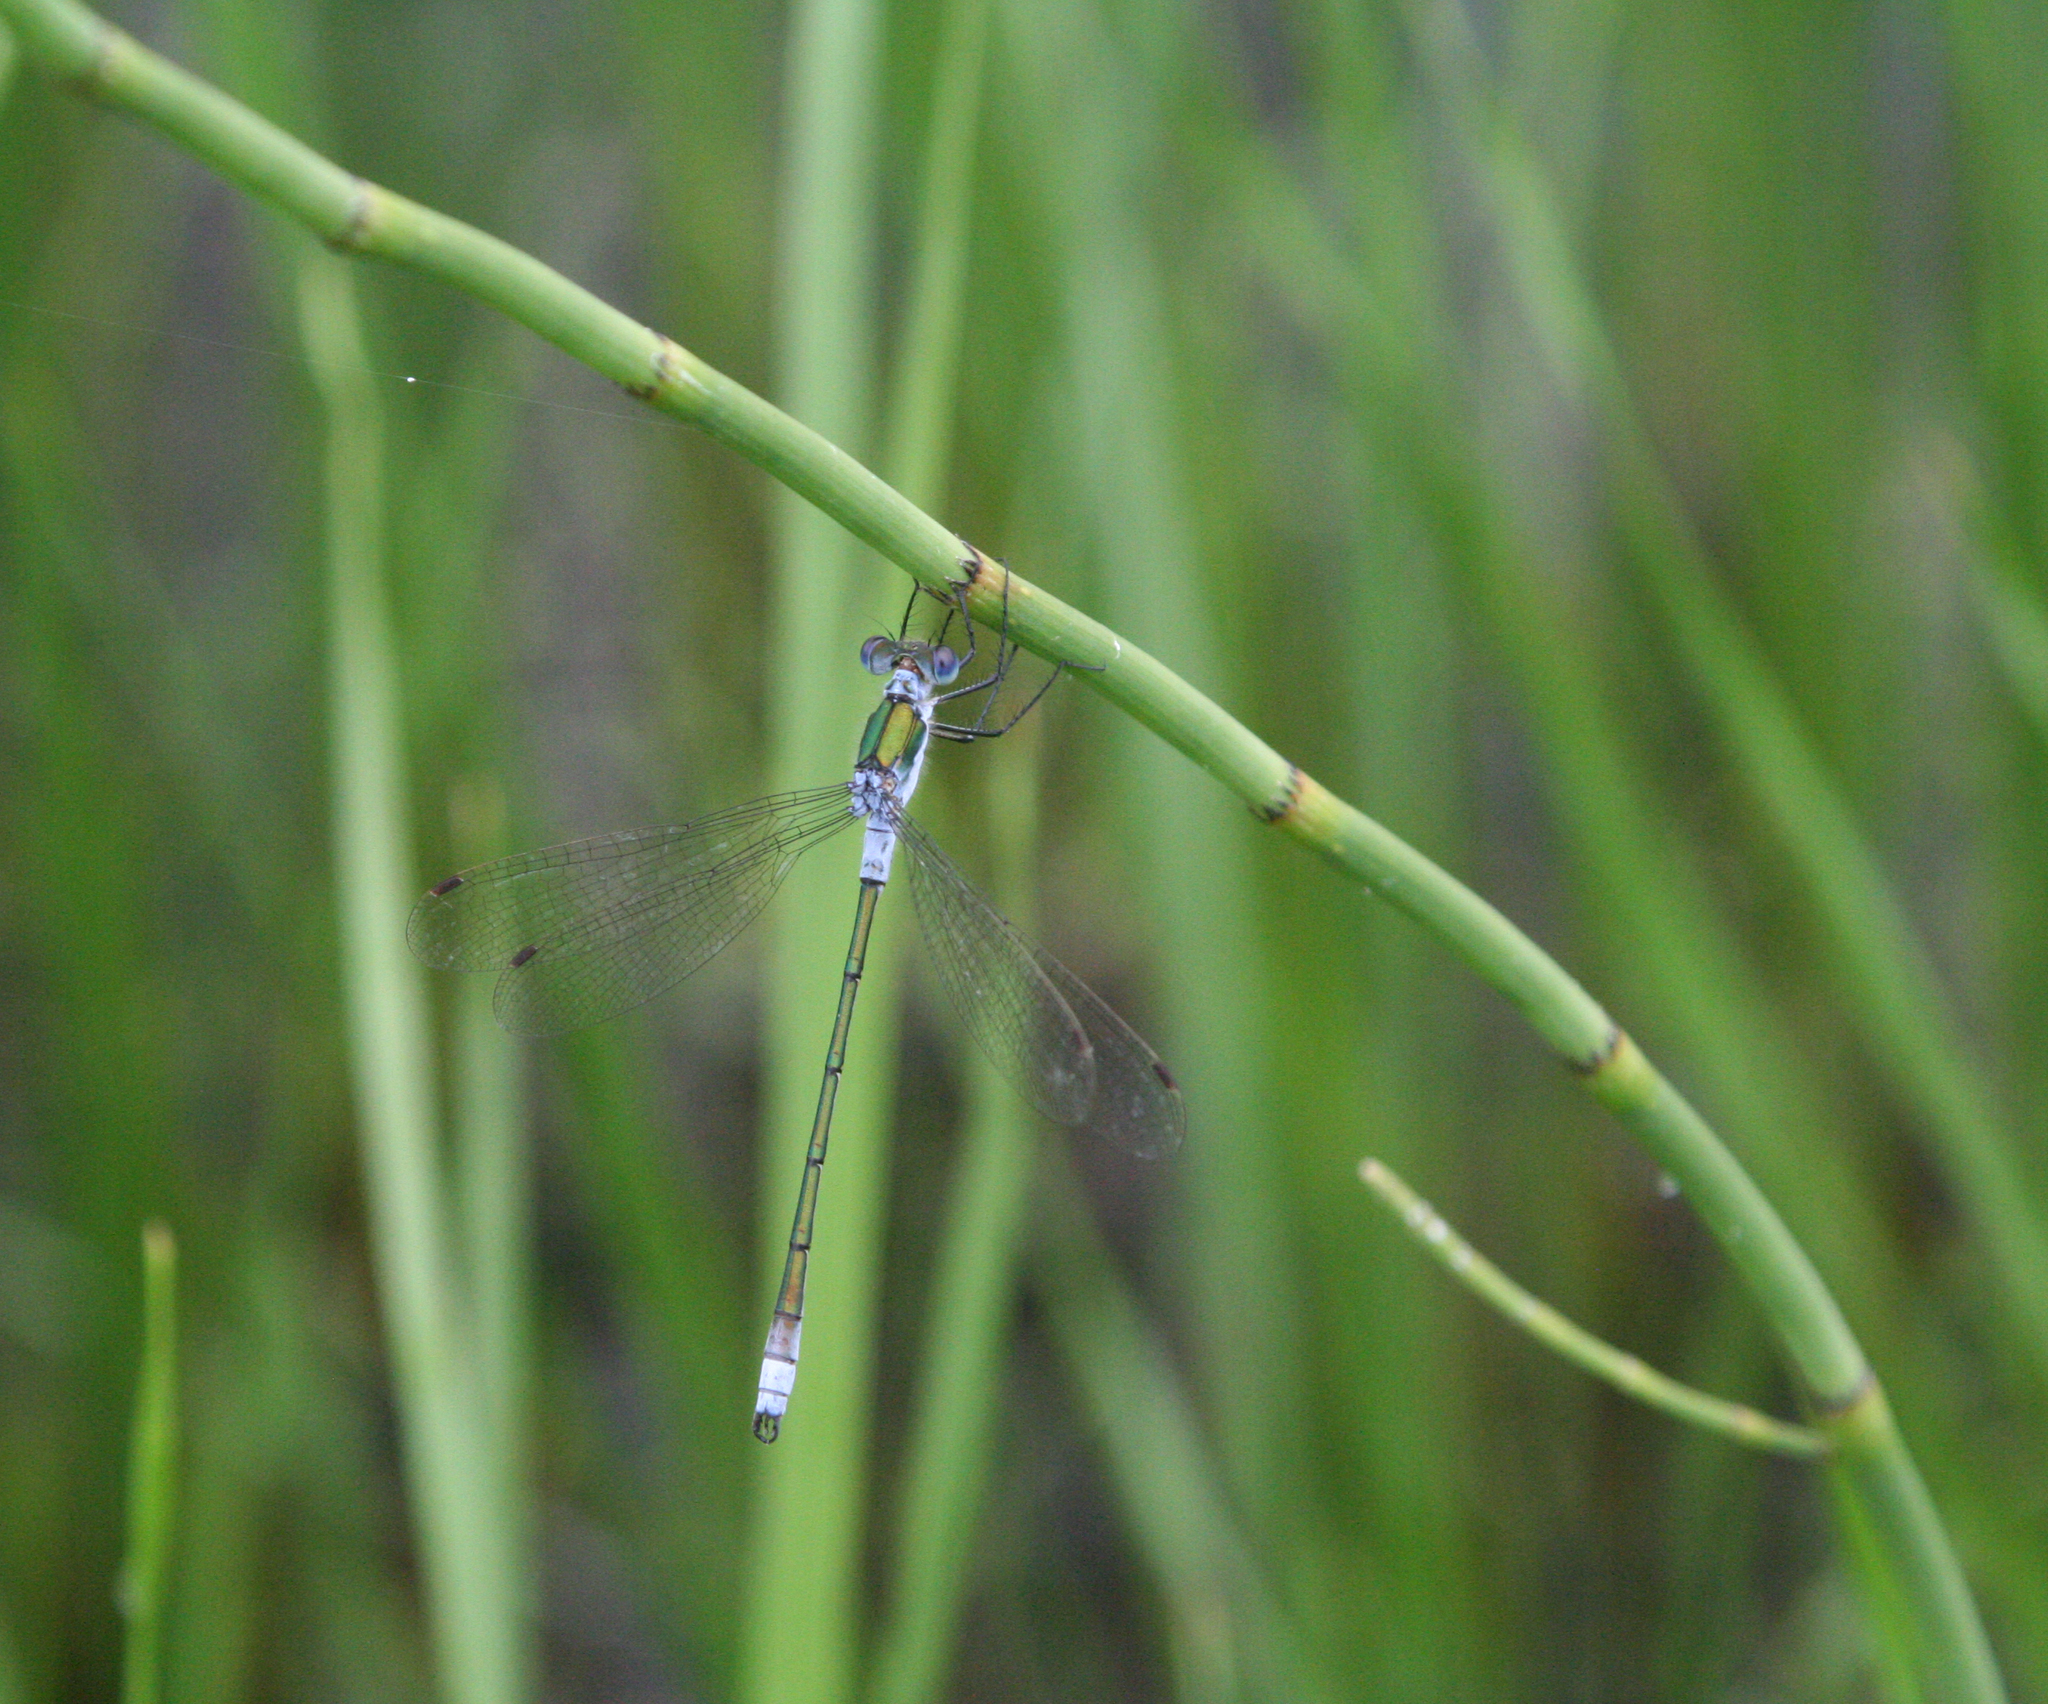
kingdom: Animalia
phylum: Arthropoda
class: Insecta
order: Odonata
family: Lestidae
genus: Lestes
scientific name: Lestes sponsa
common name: Common spreadwing
